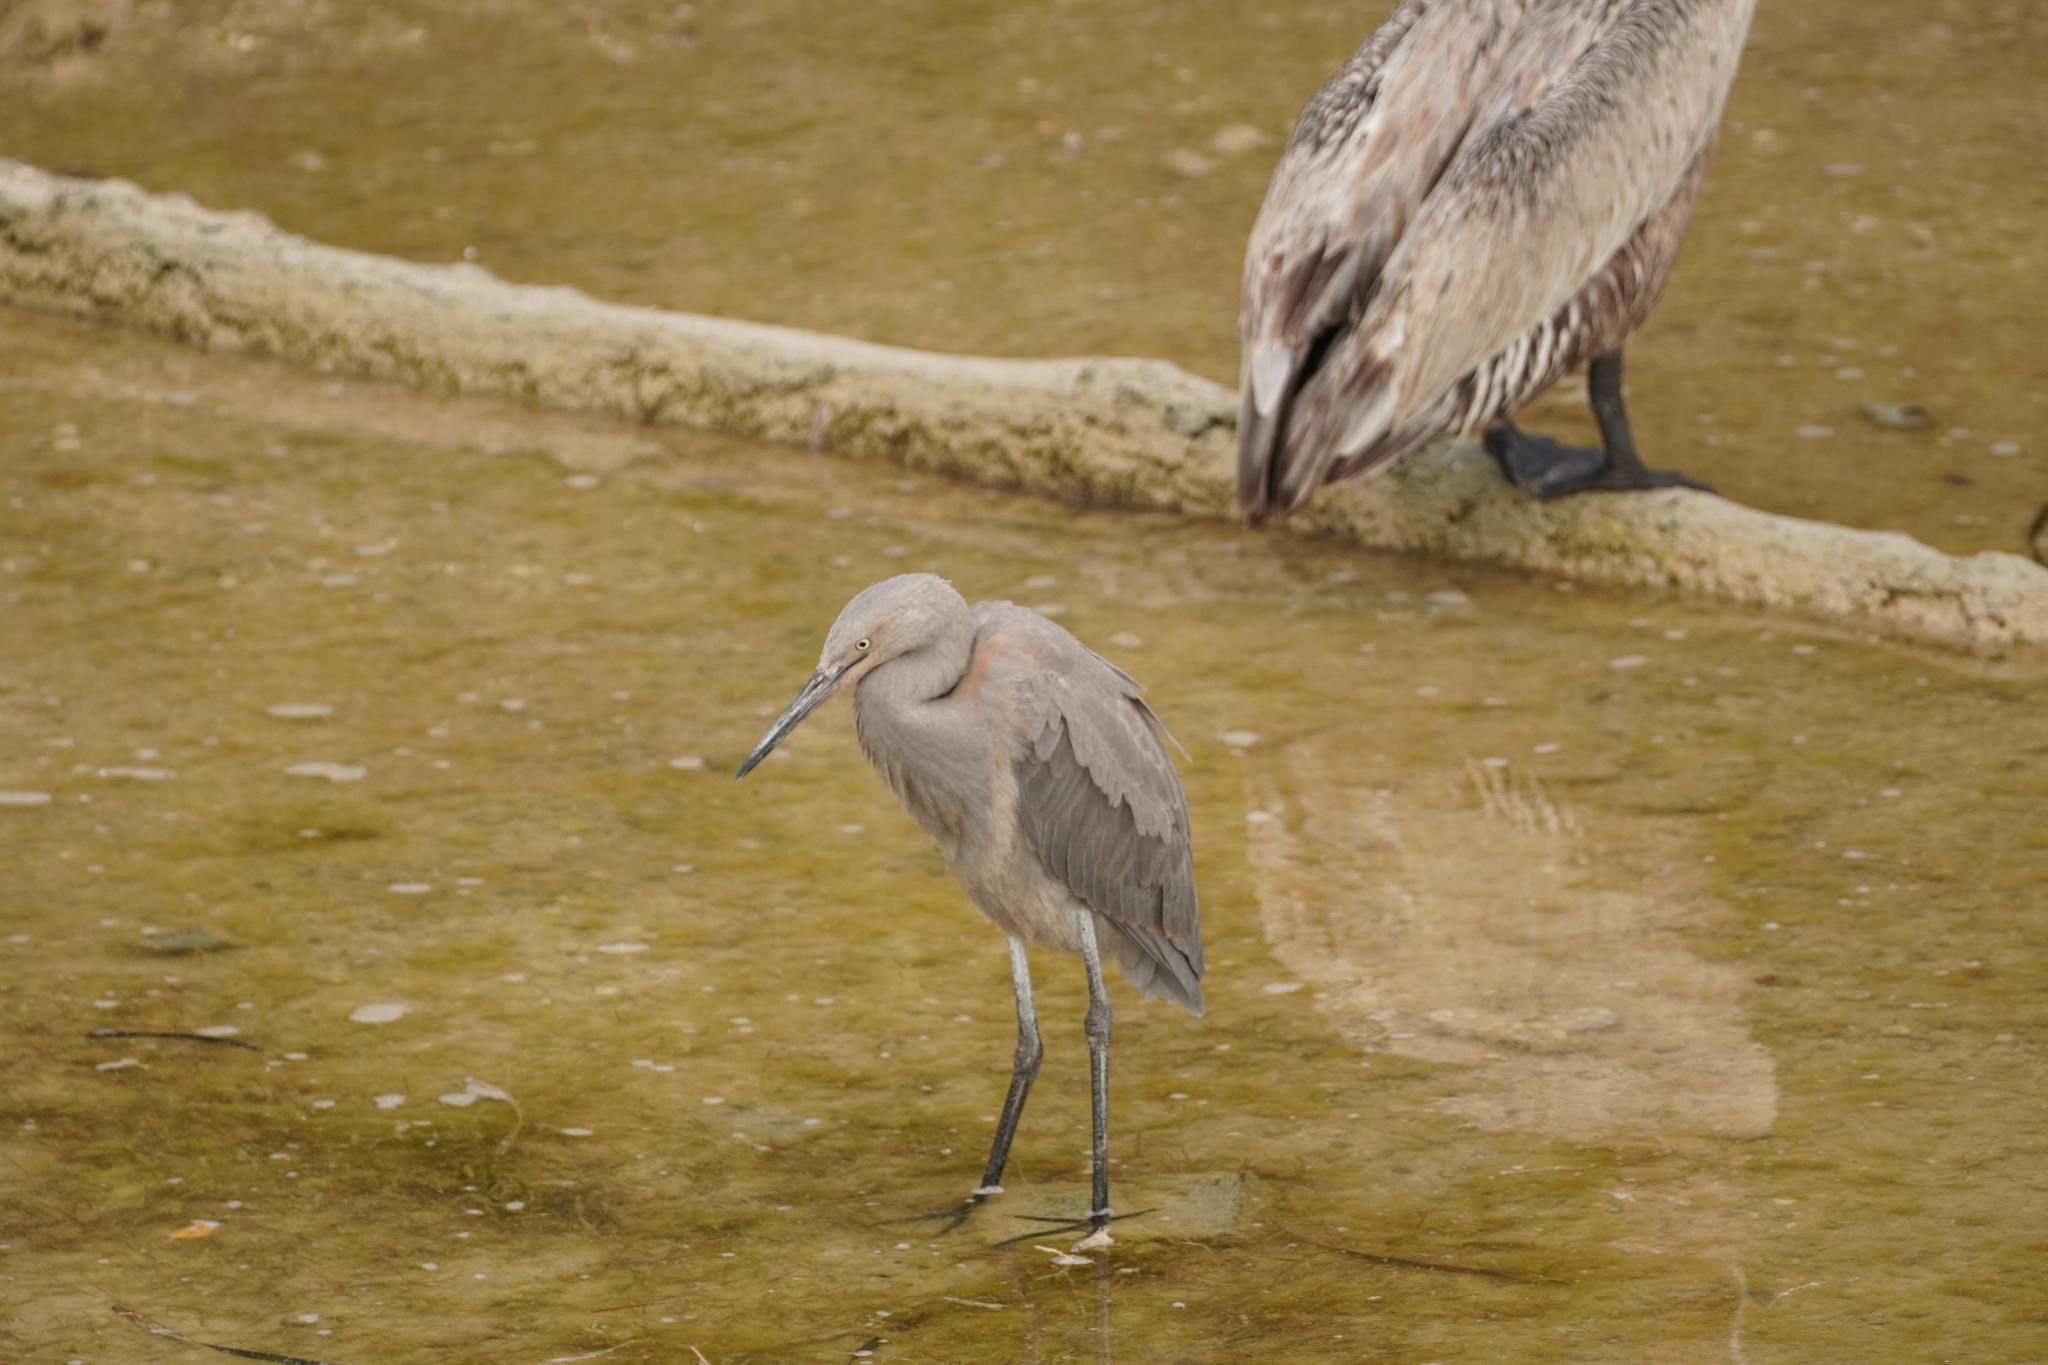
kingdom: Animalia
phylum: Chordata
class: Aves
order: Pelecaniformes
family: Ardeidae
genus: Egretta
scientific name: Egretta rufescens
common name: Reddish egret
